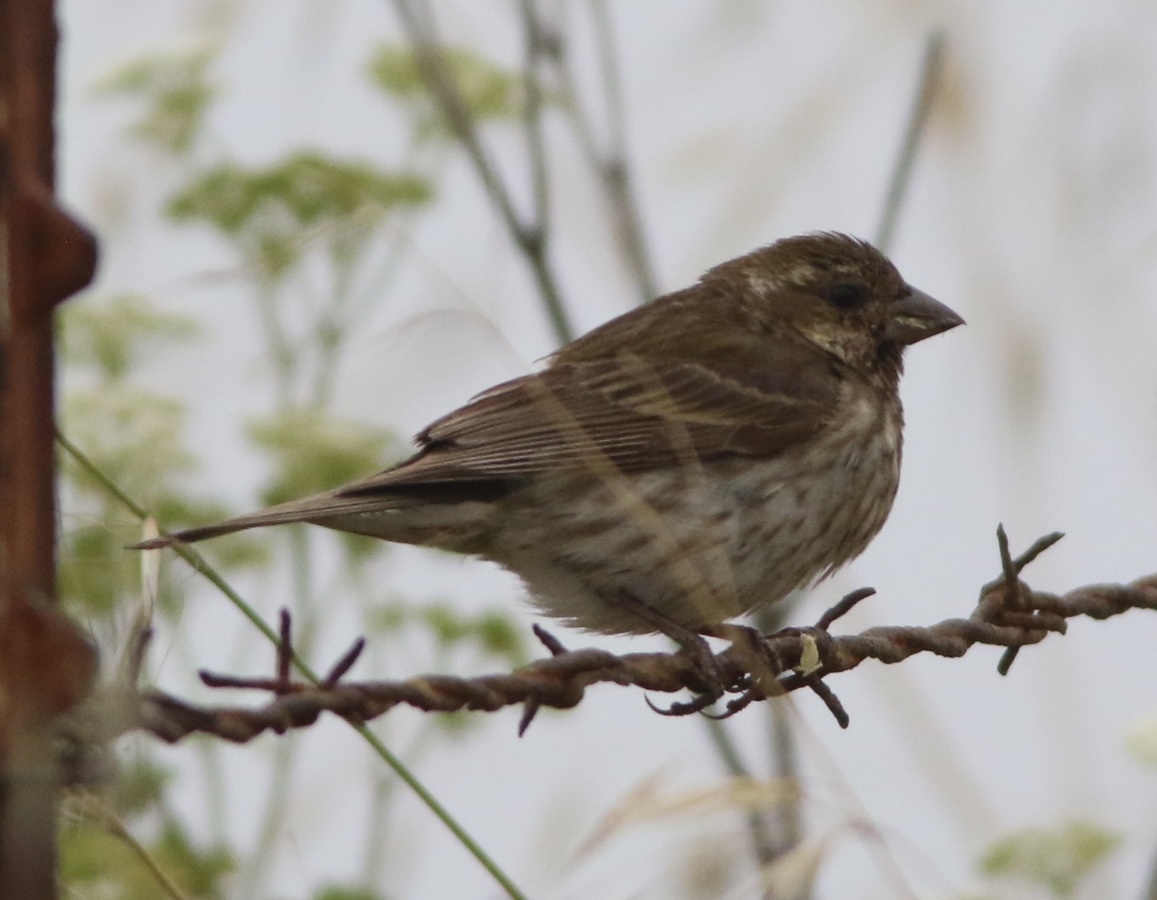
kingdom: Animalia
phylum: Chordata
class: Aves
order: Passeriformes
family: Fringillidae
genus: Haemorhous
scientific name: Haemorhous purpureus
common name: Purple finch
